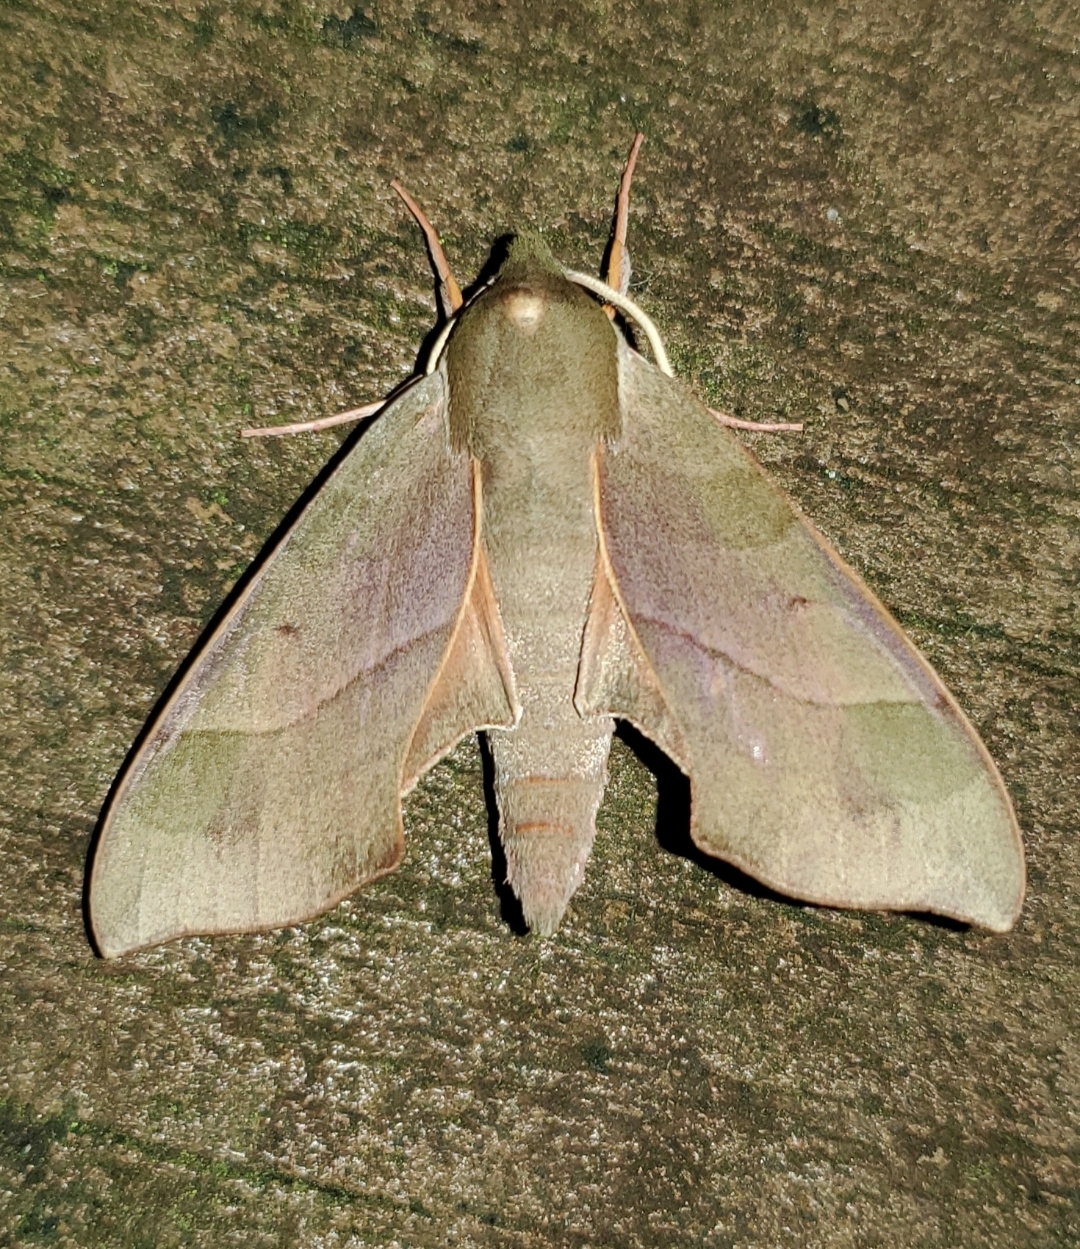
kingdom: Animalia
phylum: Arthropoda
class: Insecta
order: Lepidoptera
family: Sphingidae
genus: Darapsa
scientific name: Darapsa myron
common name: Hog sphinx
